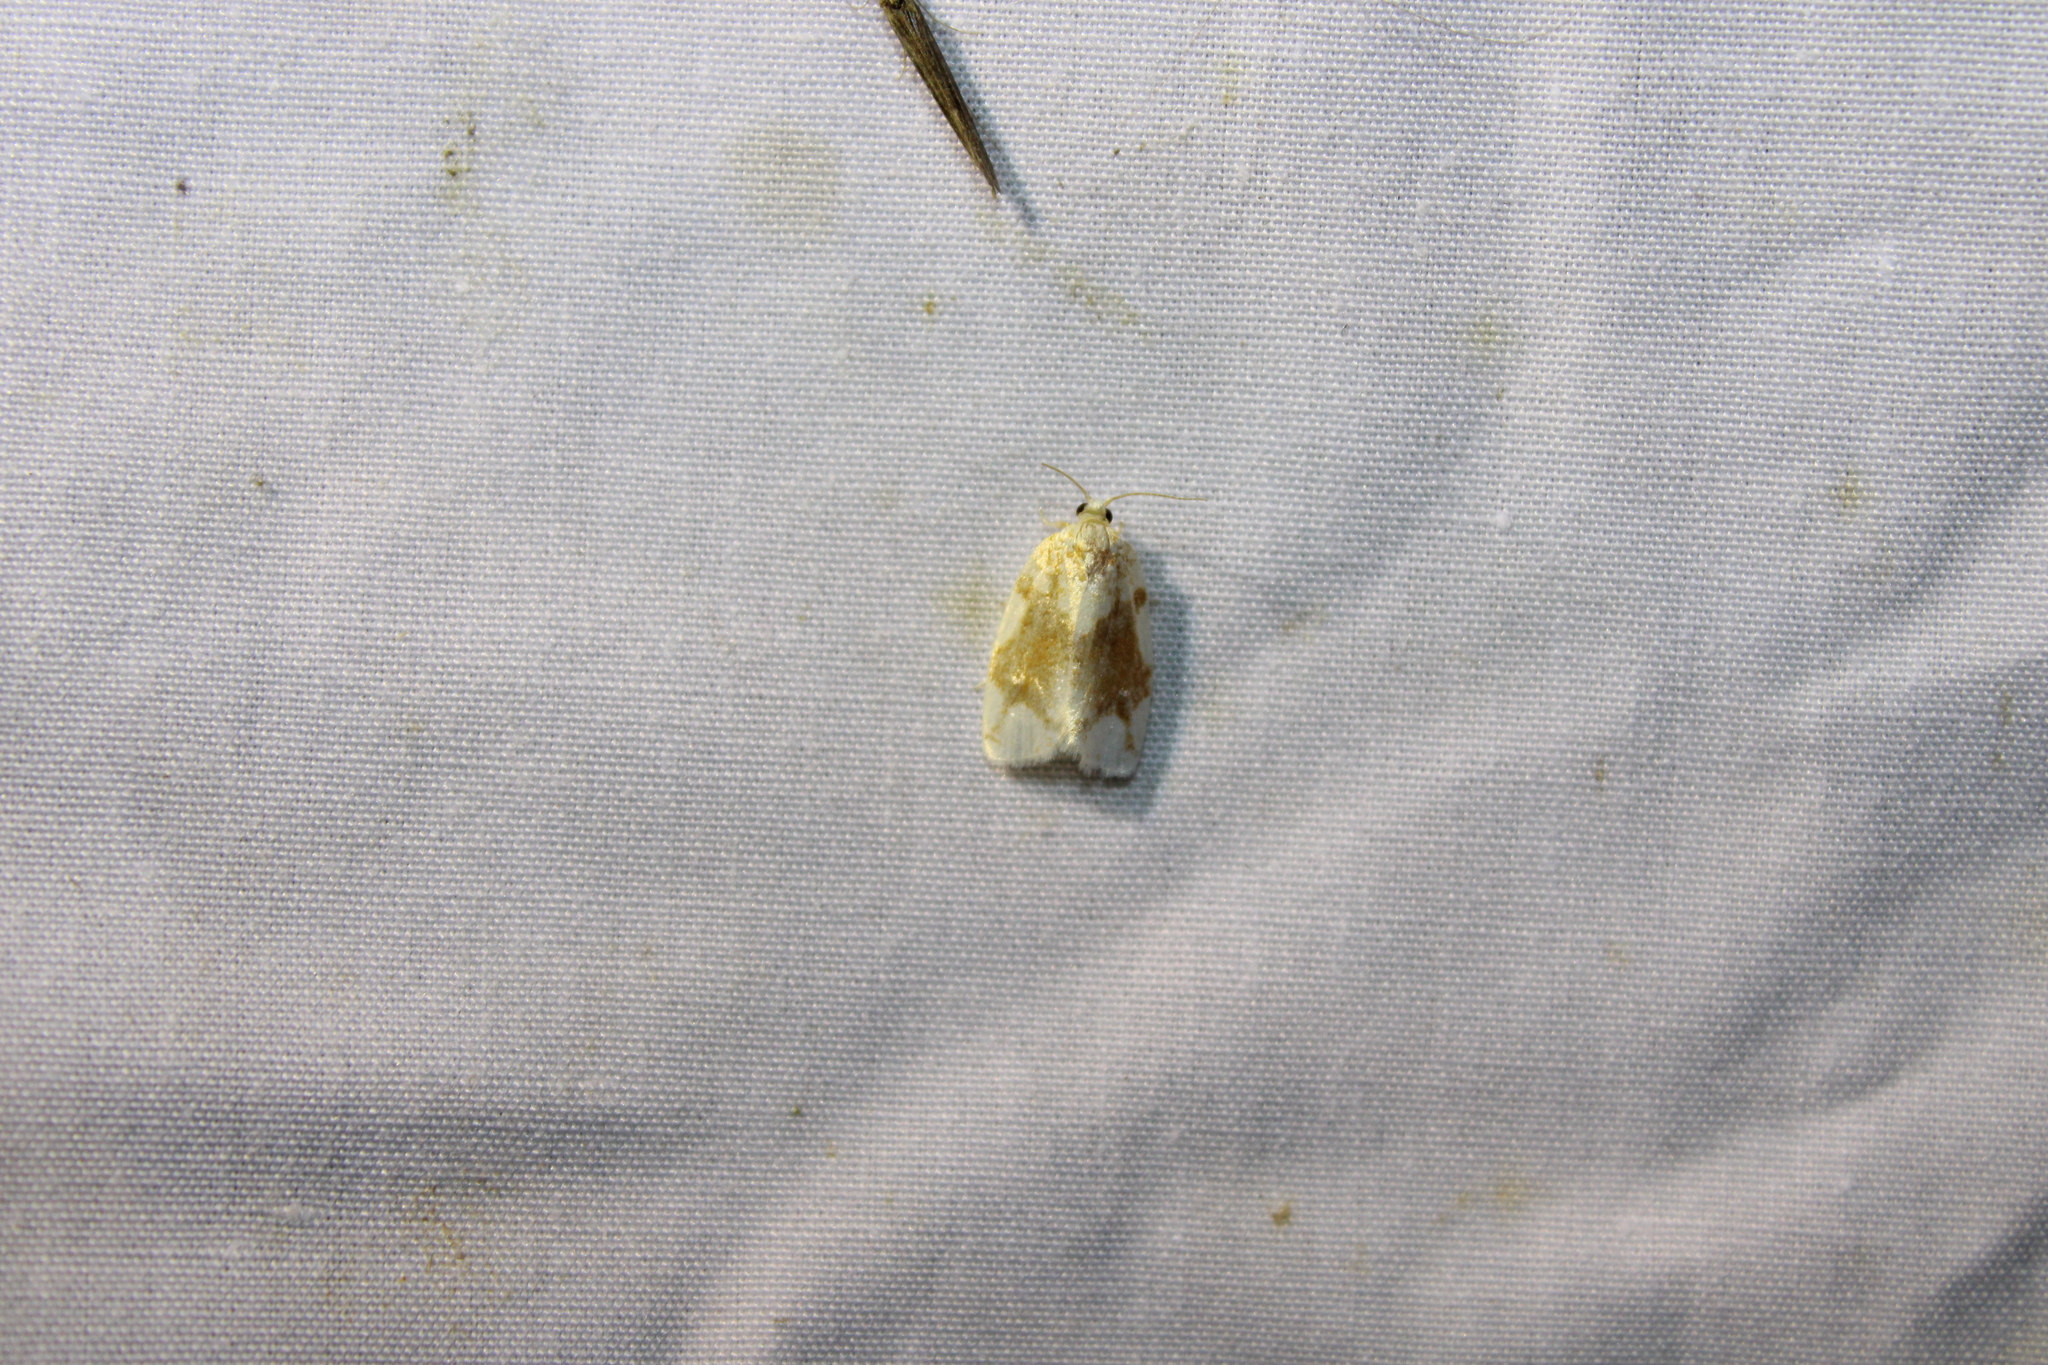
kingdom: Animalia
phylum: Arthropoda
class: Insecta
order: Lepidoptera
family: Tortricidae
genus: Argyrotaenia
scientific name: Argyrotaenia alisellana
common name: White-spotted leafroller moth
